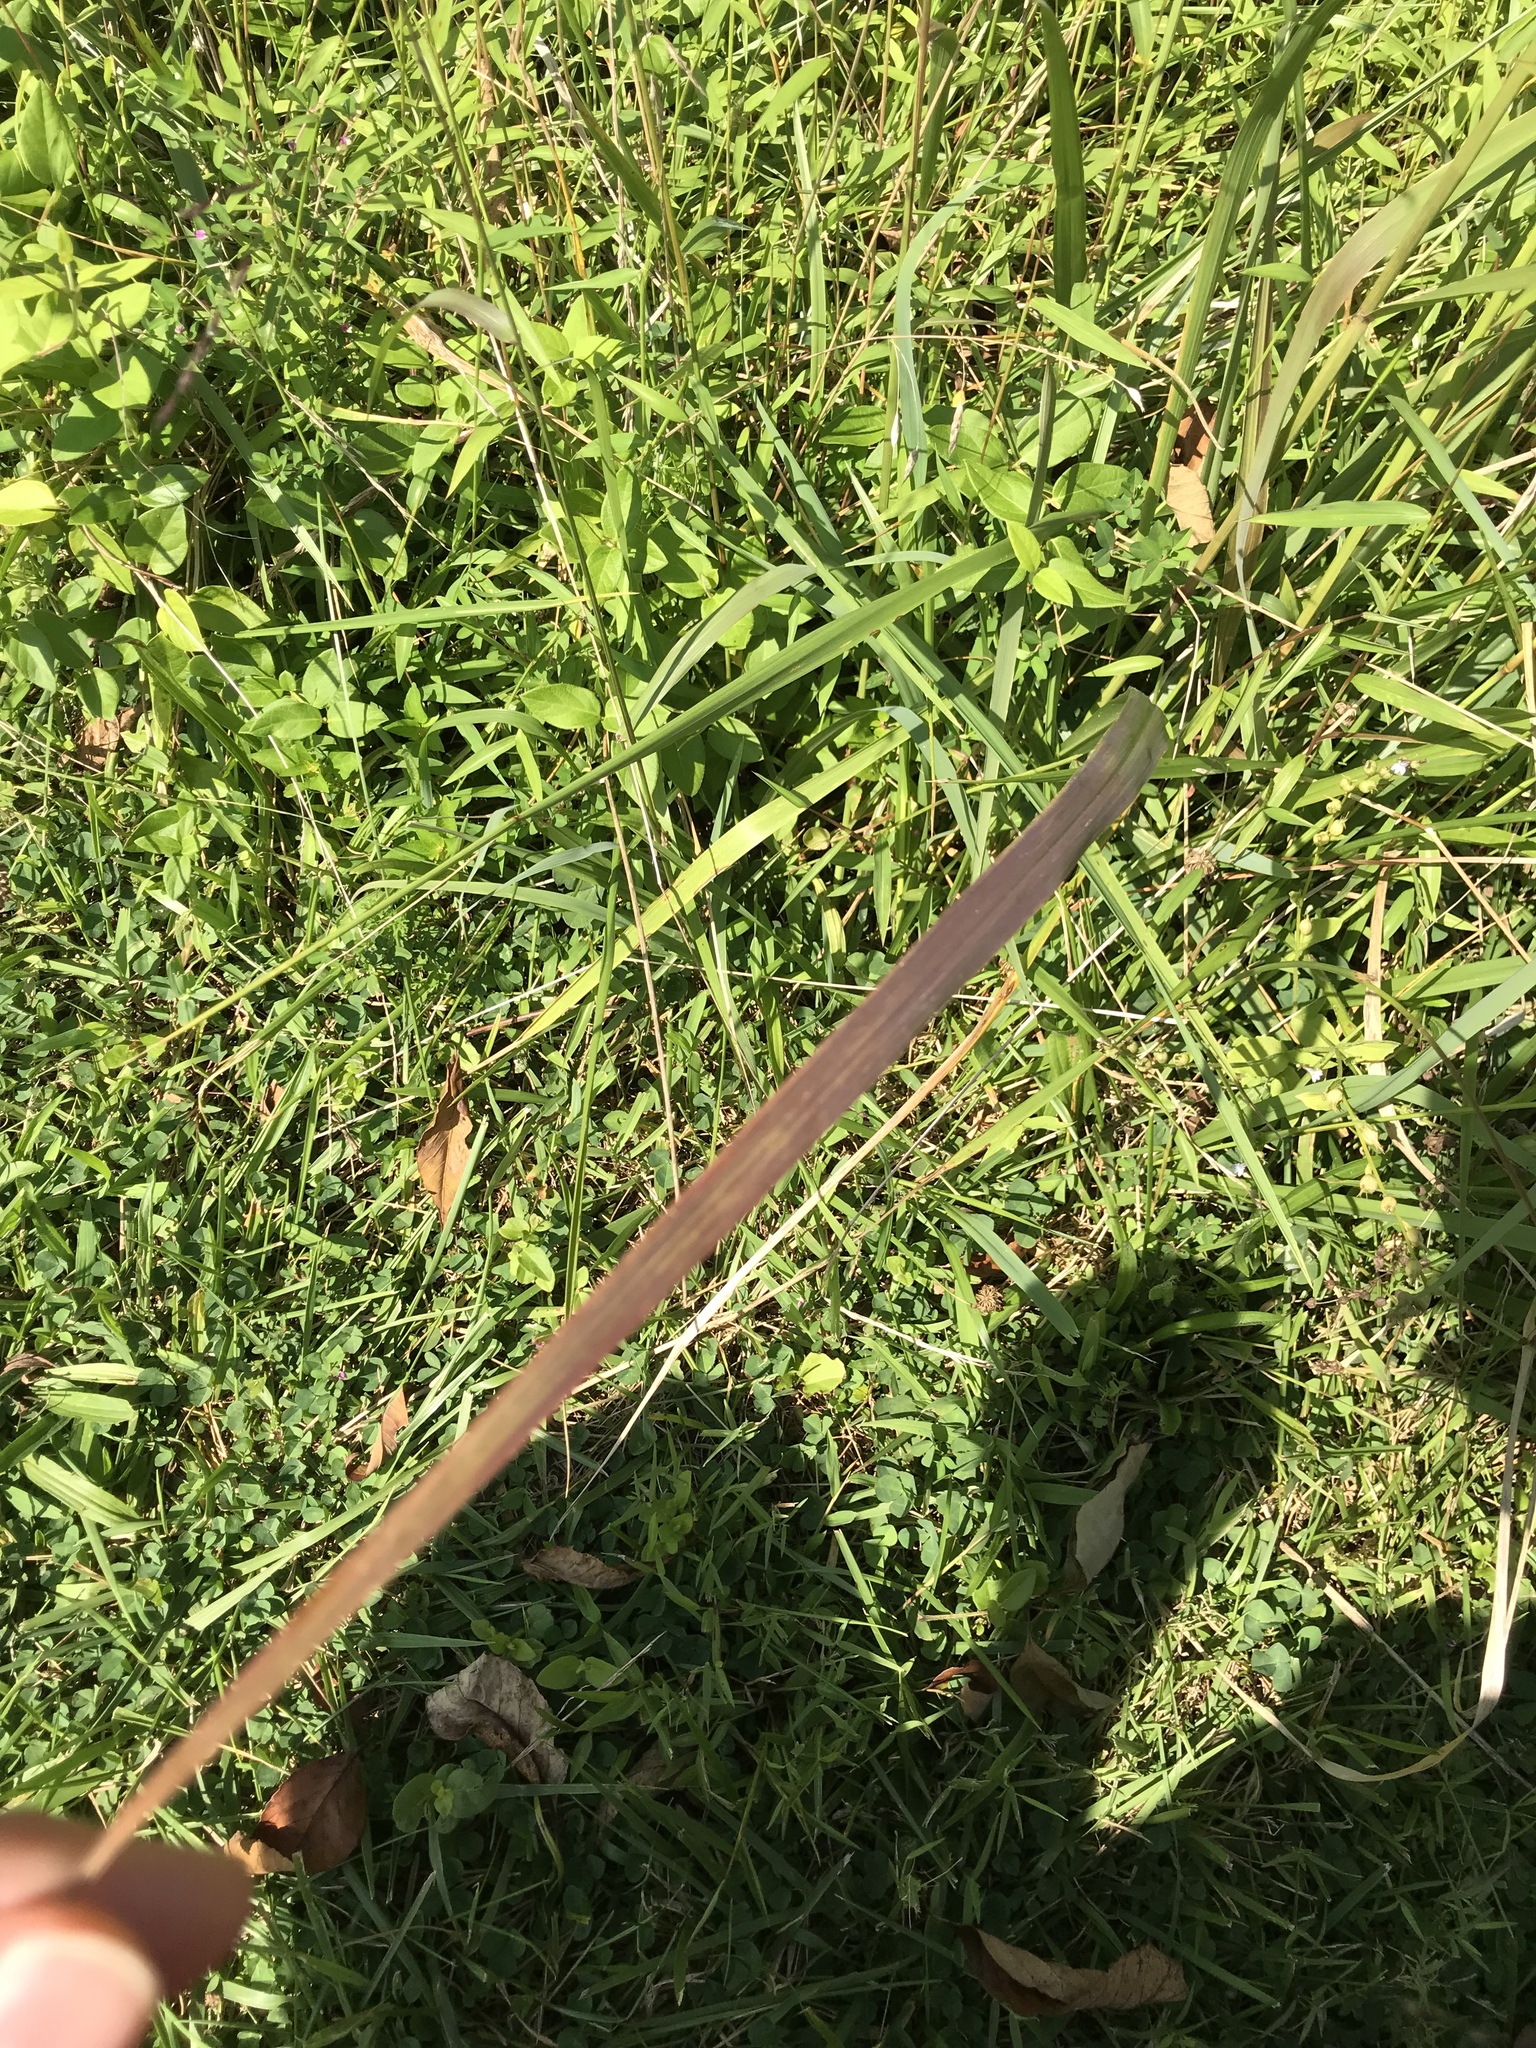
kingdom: Plantae
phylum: Tracheophyta
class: Liliopsida
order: Poales
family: Poaceae
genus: Tridens
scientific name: Tridens flavus
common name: Purpletop
